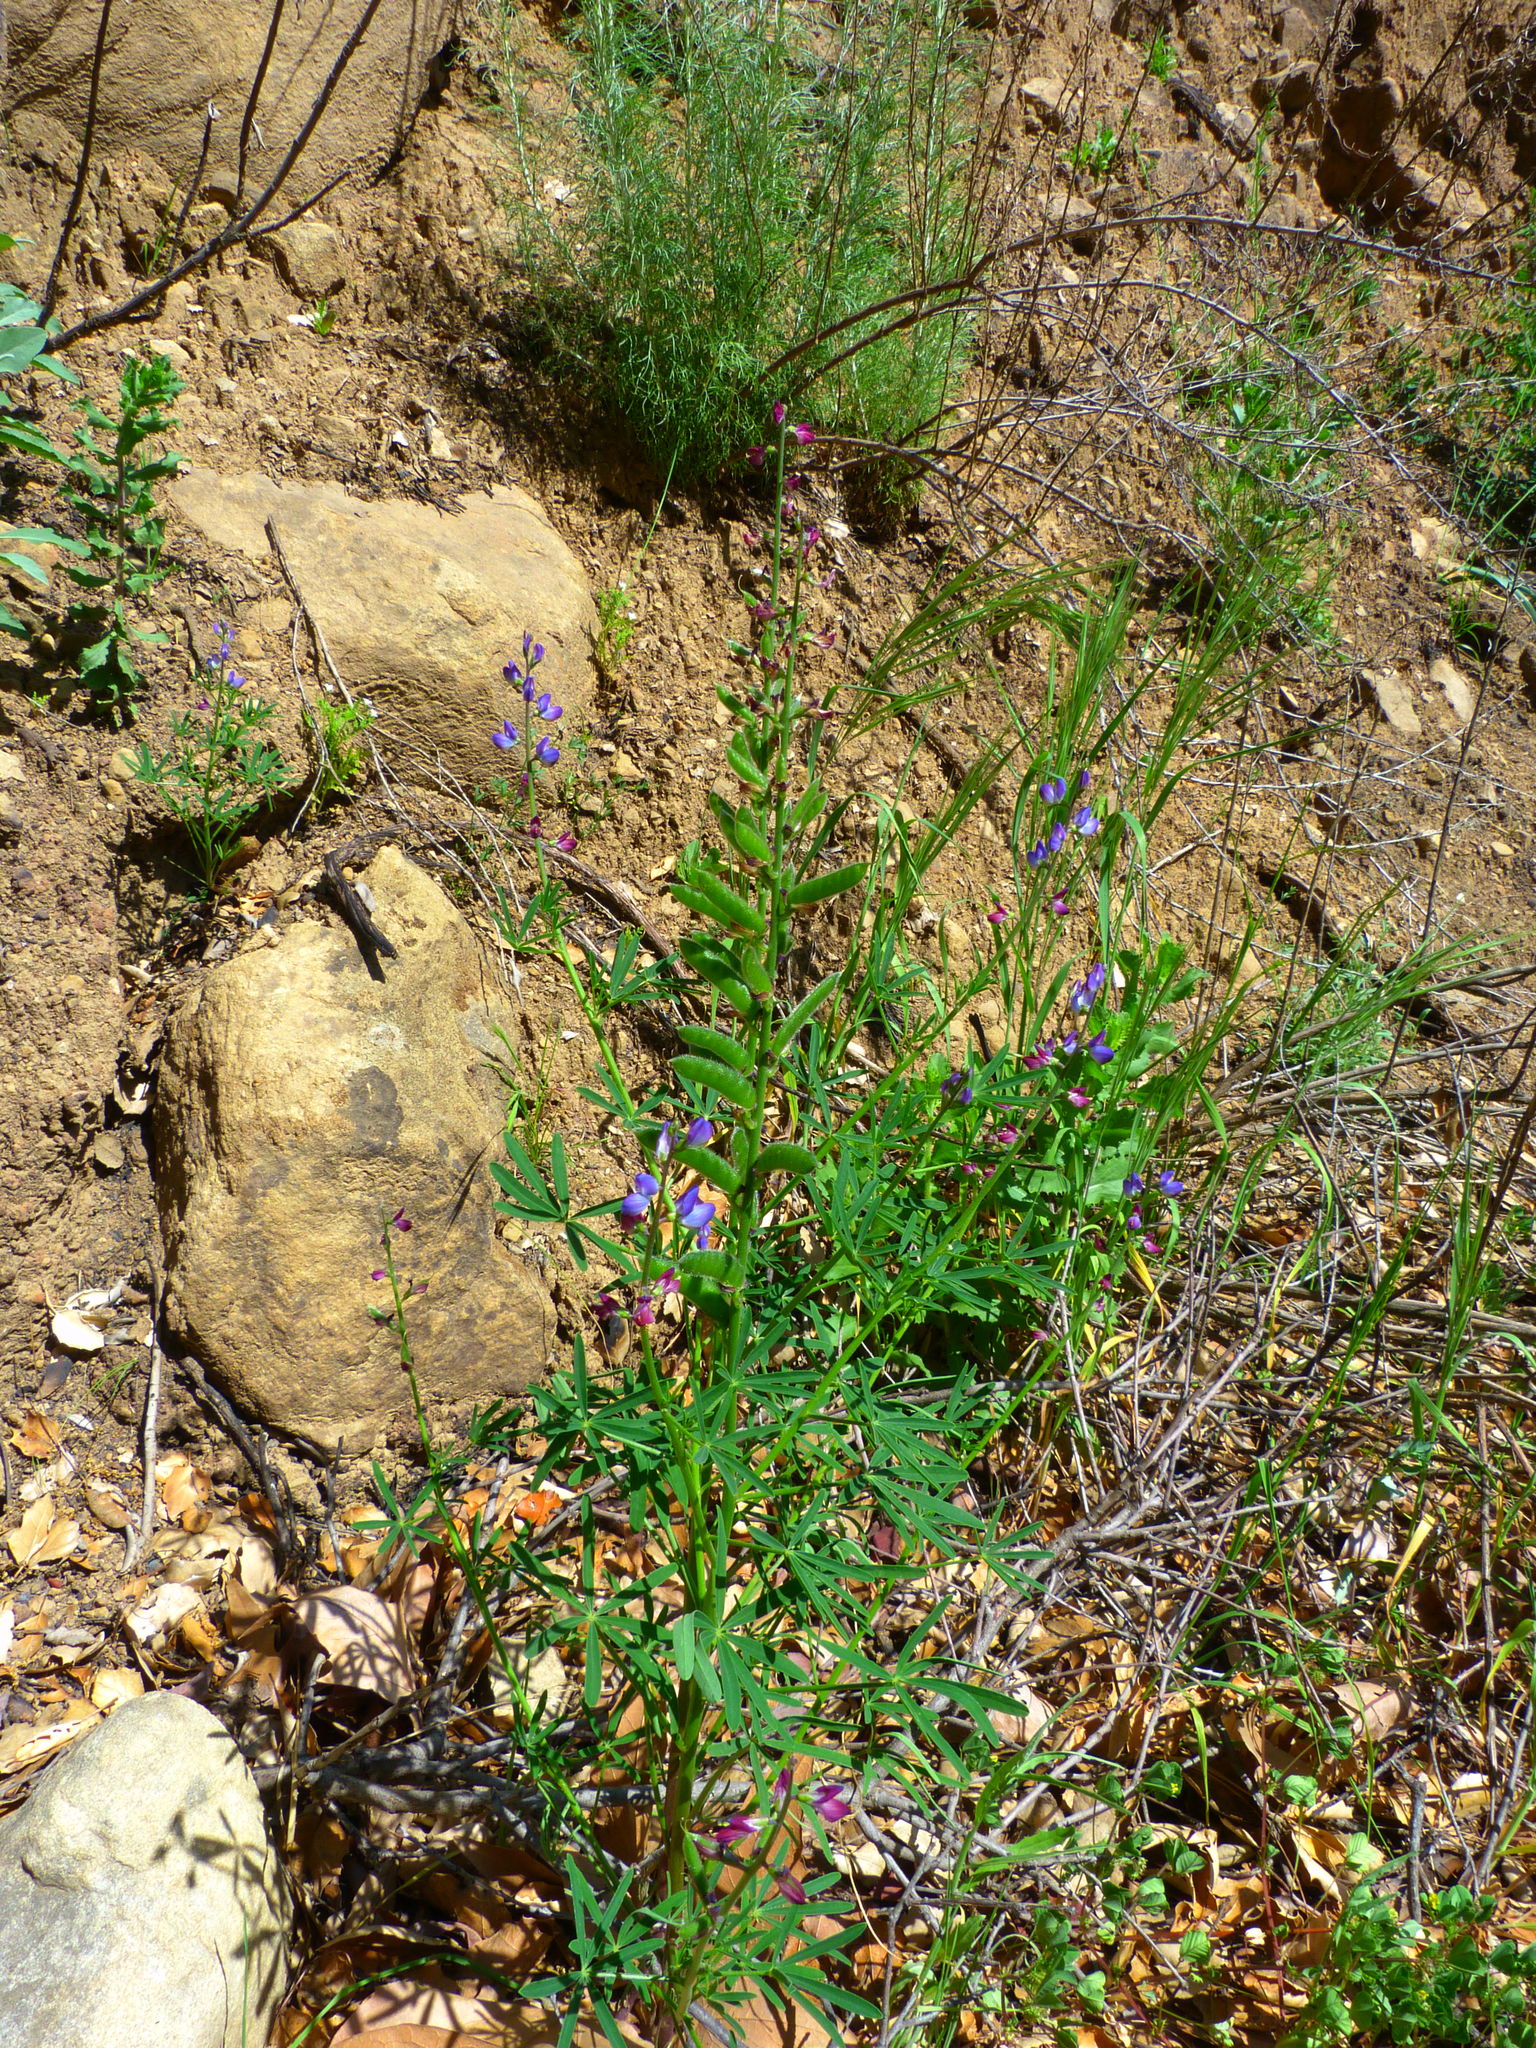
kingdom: Plantae
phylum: Tracheophyta
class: Magnoliopsida
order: Fabales
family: Fabaceae
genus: Lupinus
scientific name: Lupinus truncatus
